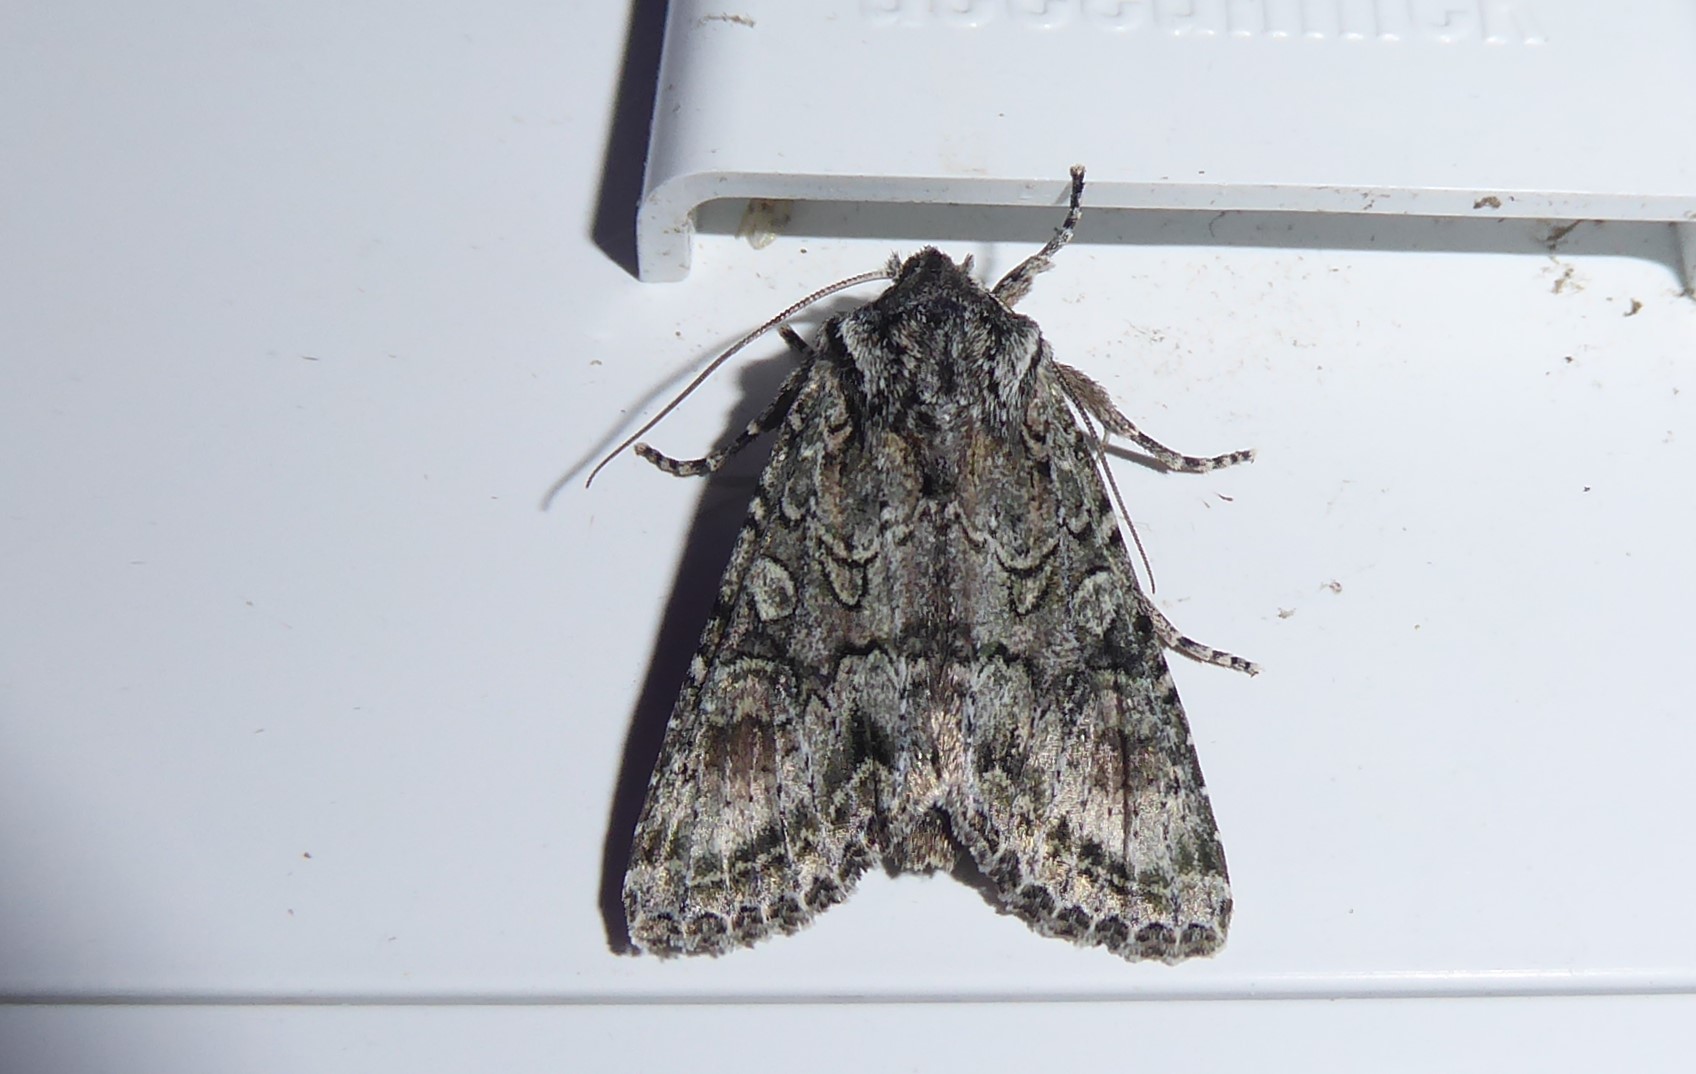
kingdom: Animalia
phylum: Arthropoda
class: Insecta
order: Lepidoptera
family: Noctuidae
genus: Ichneutica
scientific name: Ichneutica mutans
